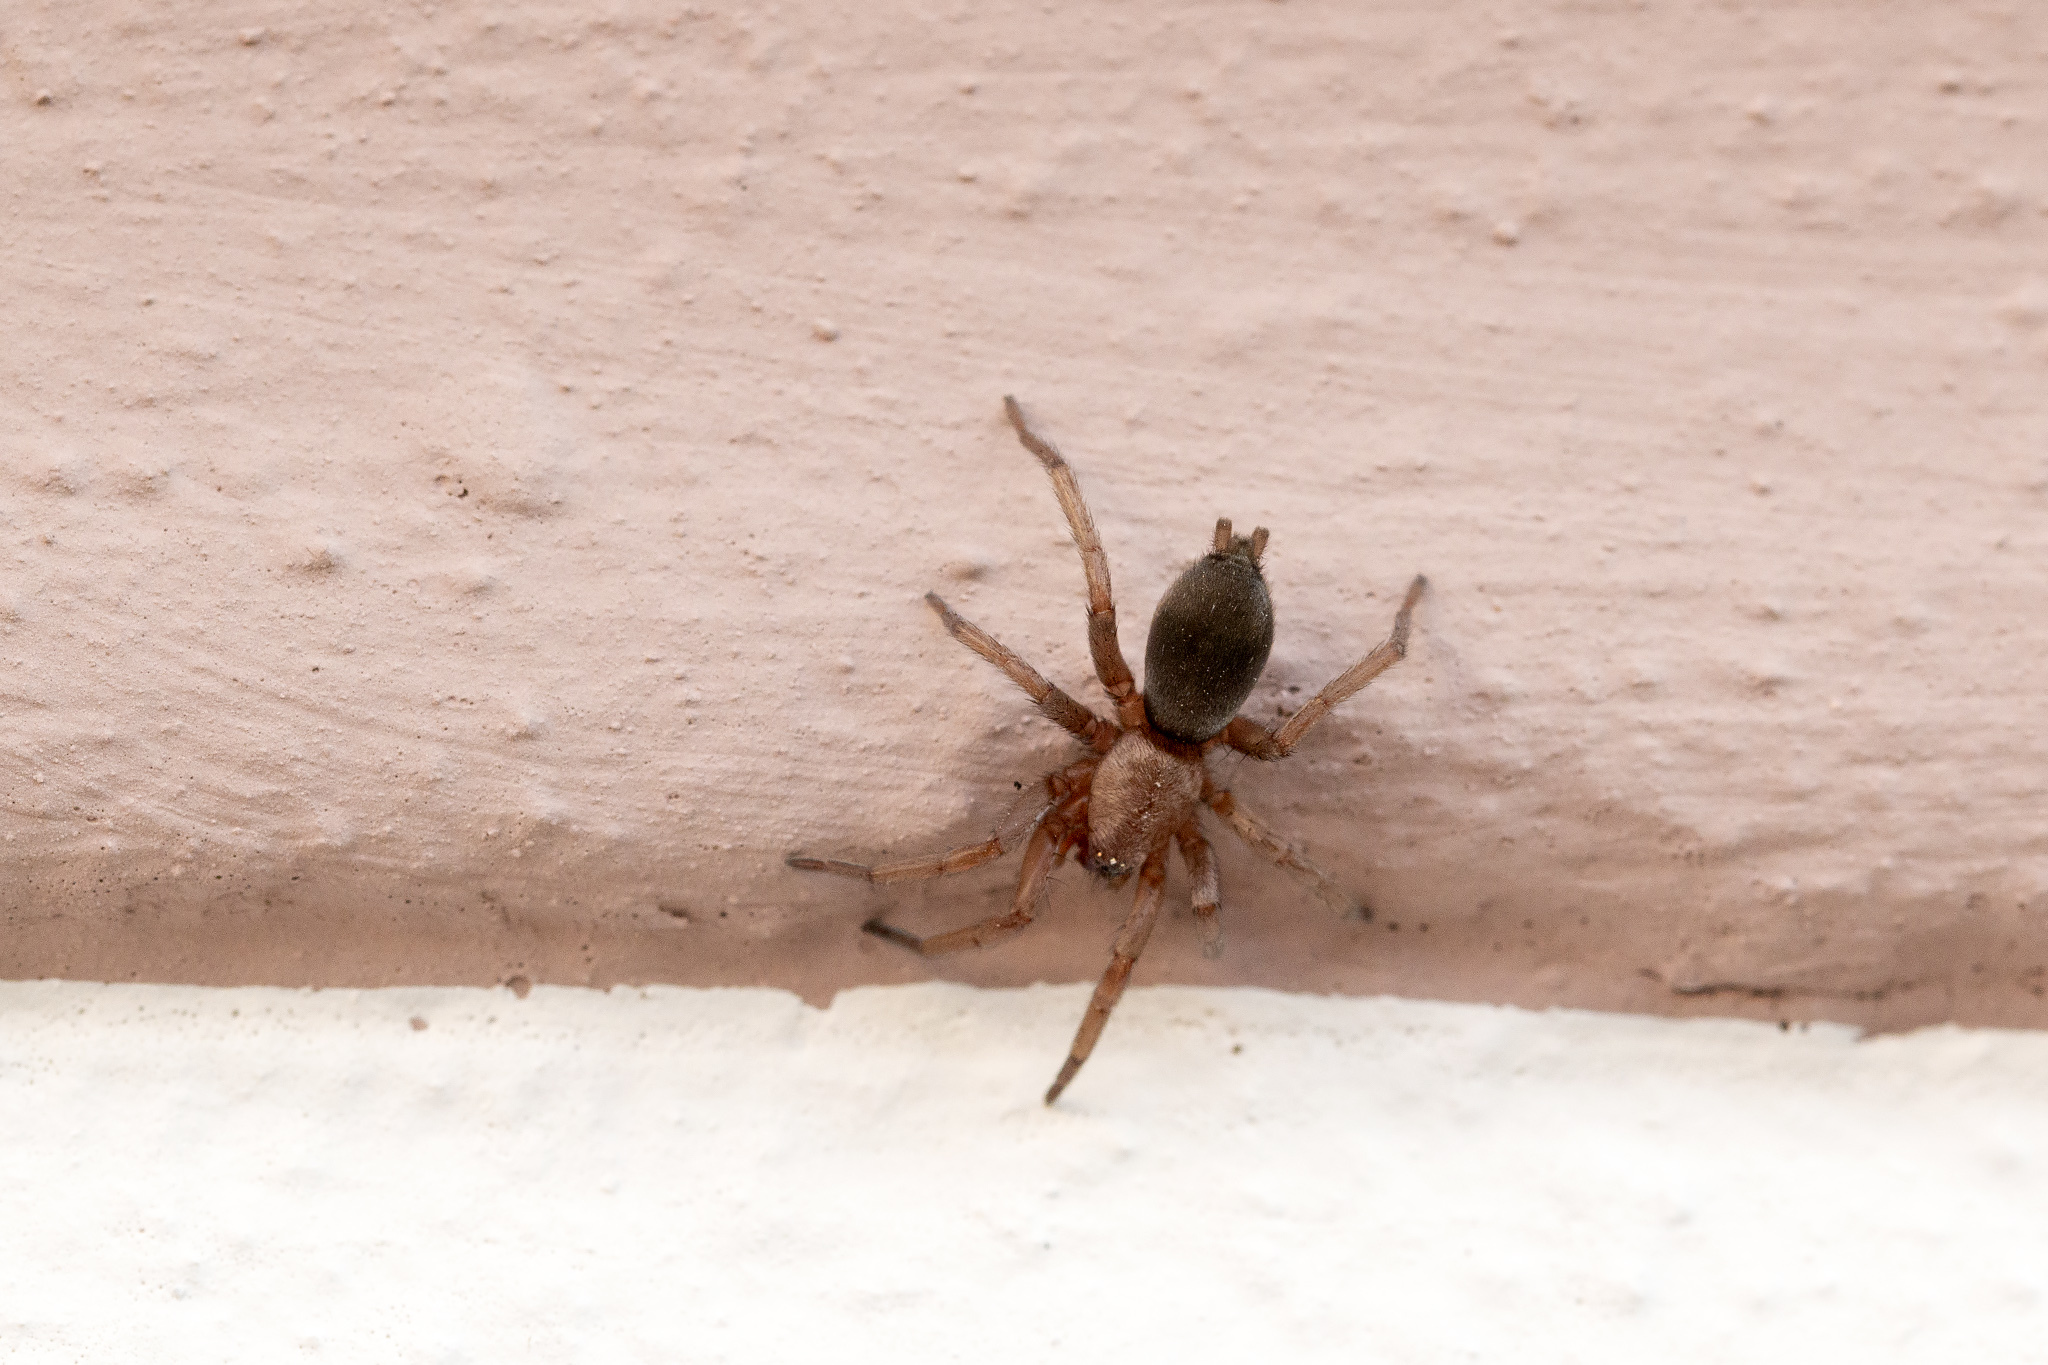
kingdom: Animalia
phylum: Arthropoda
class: Arachnida
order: Araneae
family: Gnaphosidae
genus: Scotophaeus
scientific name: Scotophaeus blackwalli
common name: Mouse spider
